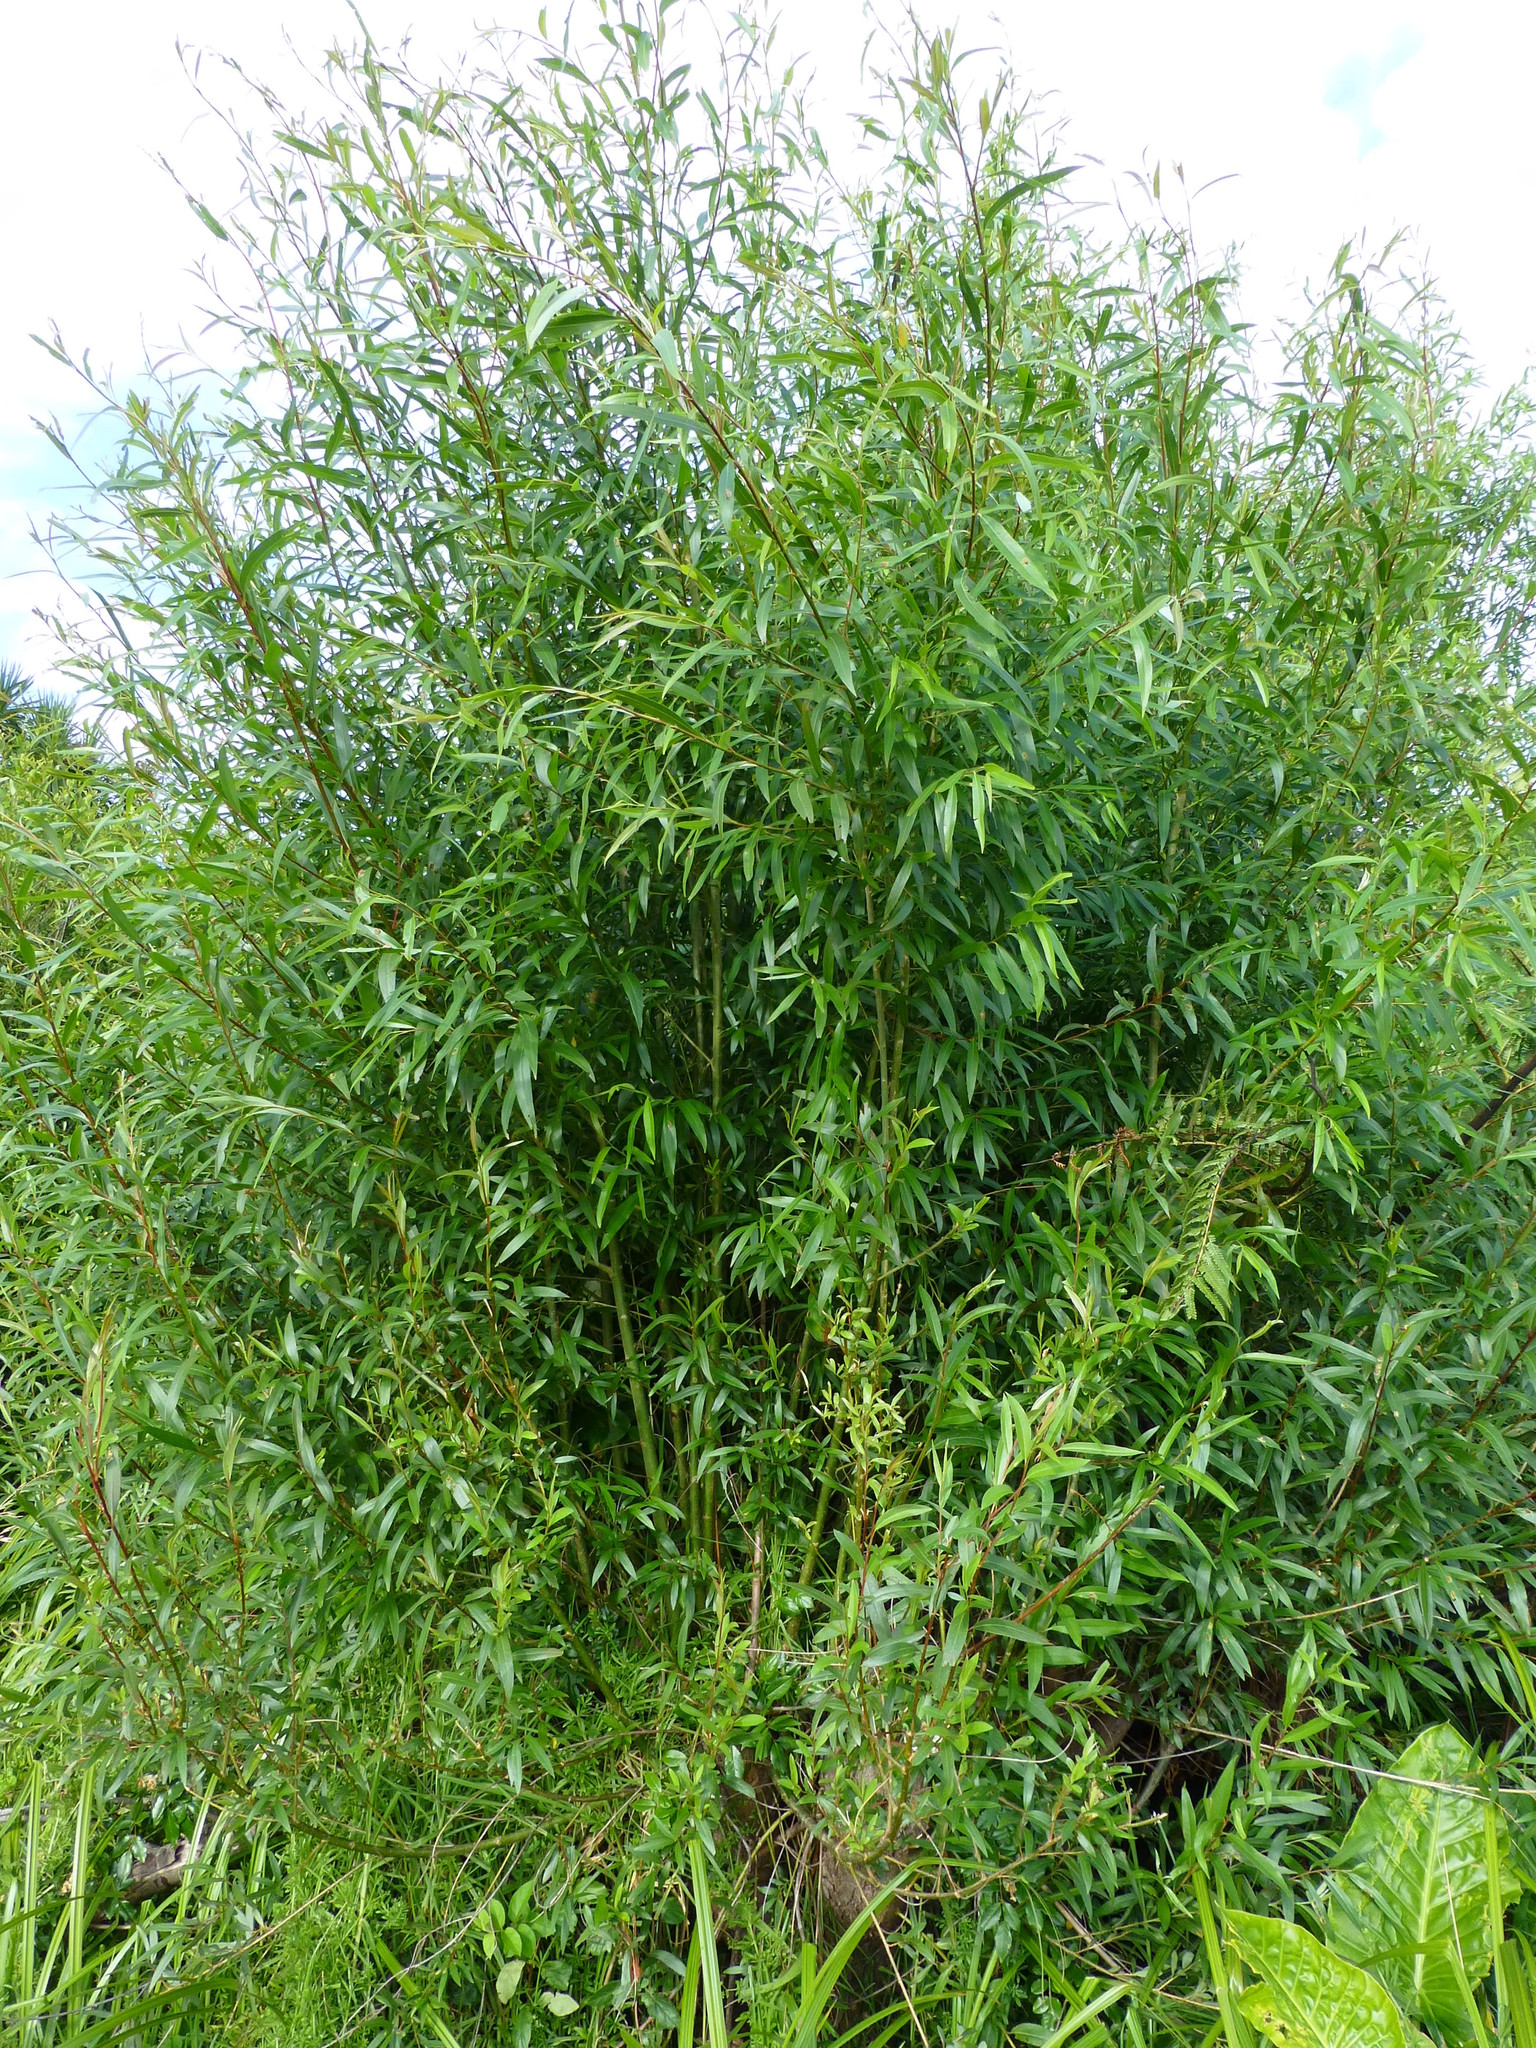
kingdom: Plantae
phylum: Tracheophyta
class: Magnoliopsida
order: Malpighiales
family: Salicaceae
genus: Salix
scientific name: Salix fragilis
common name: Crack willow
